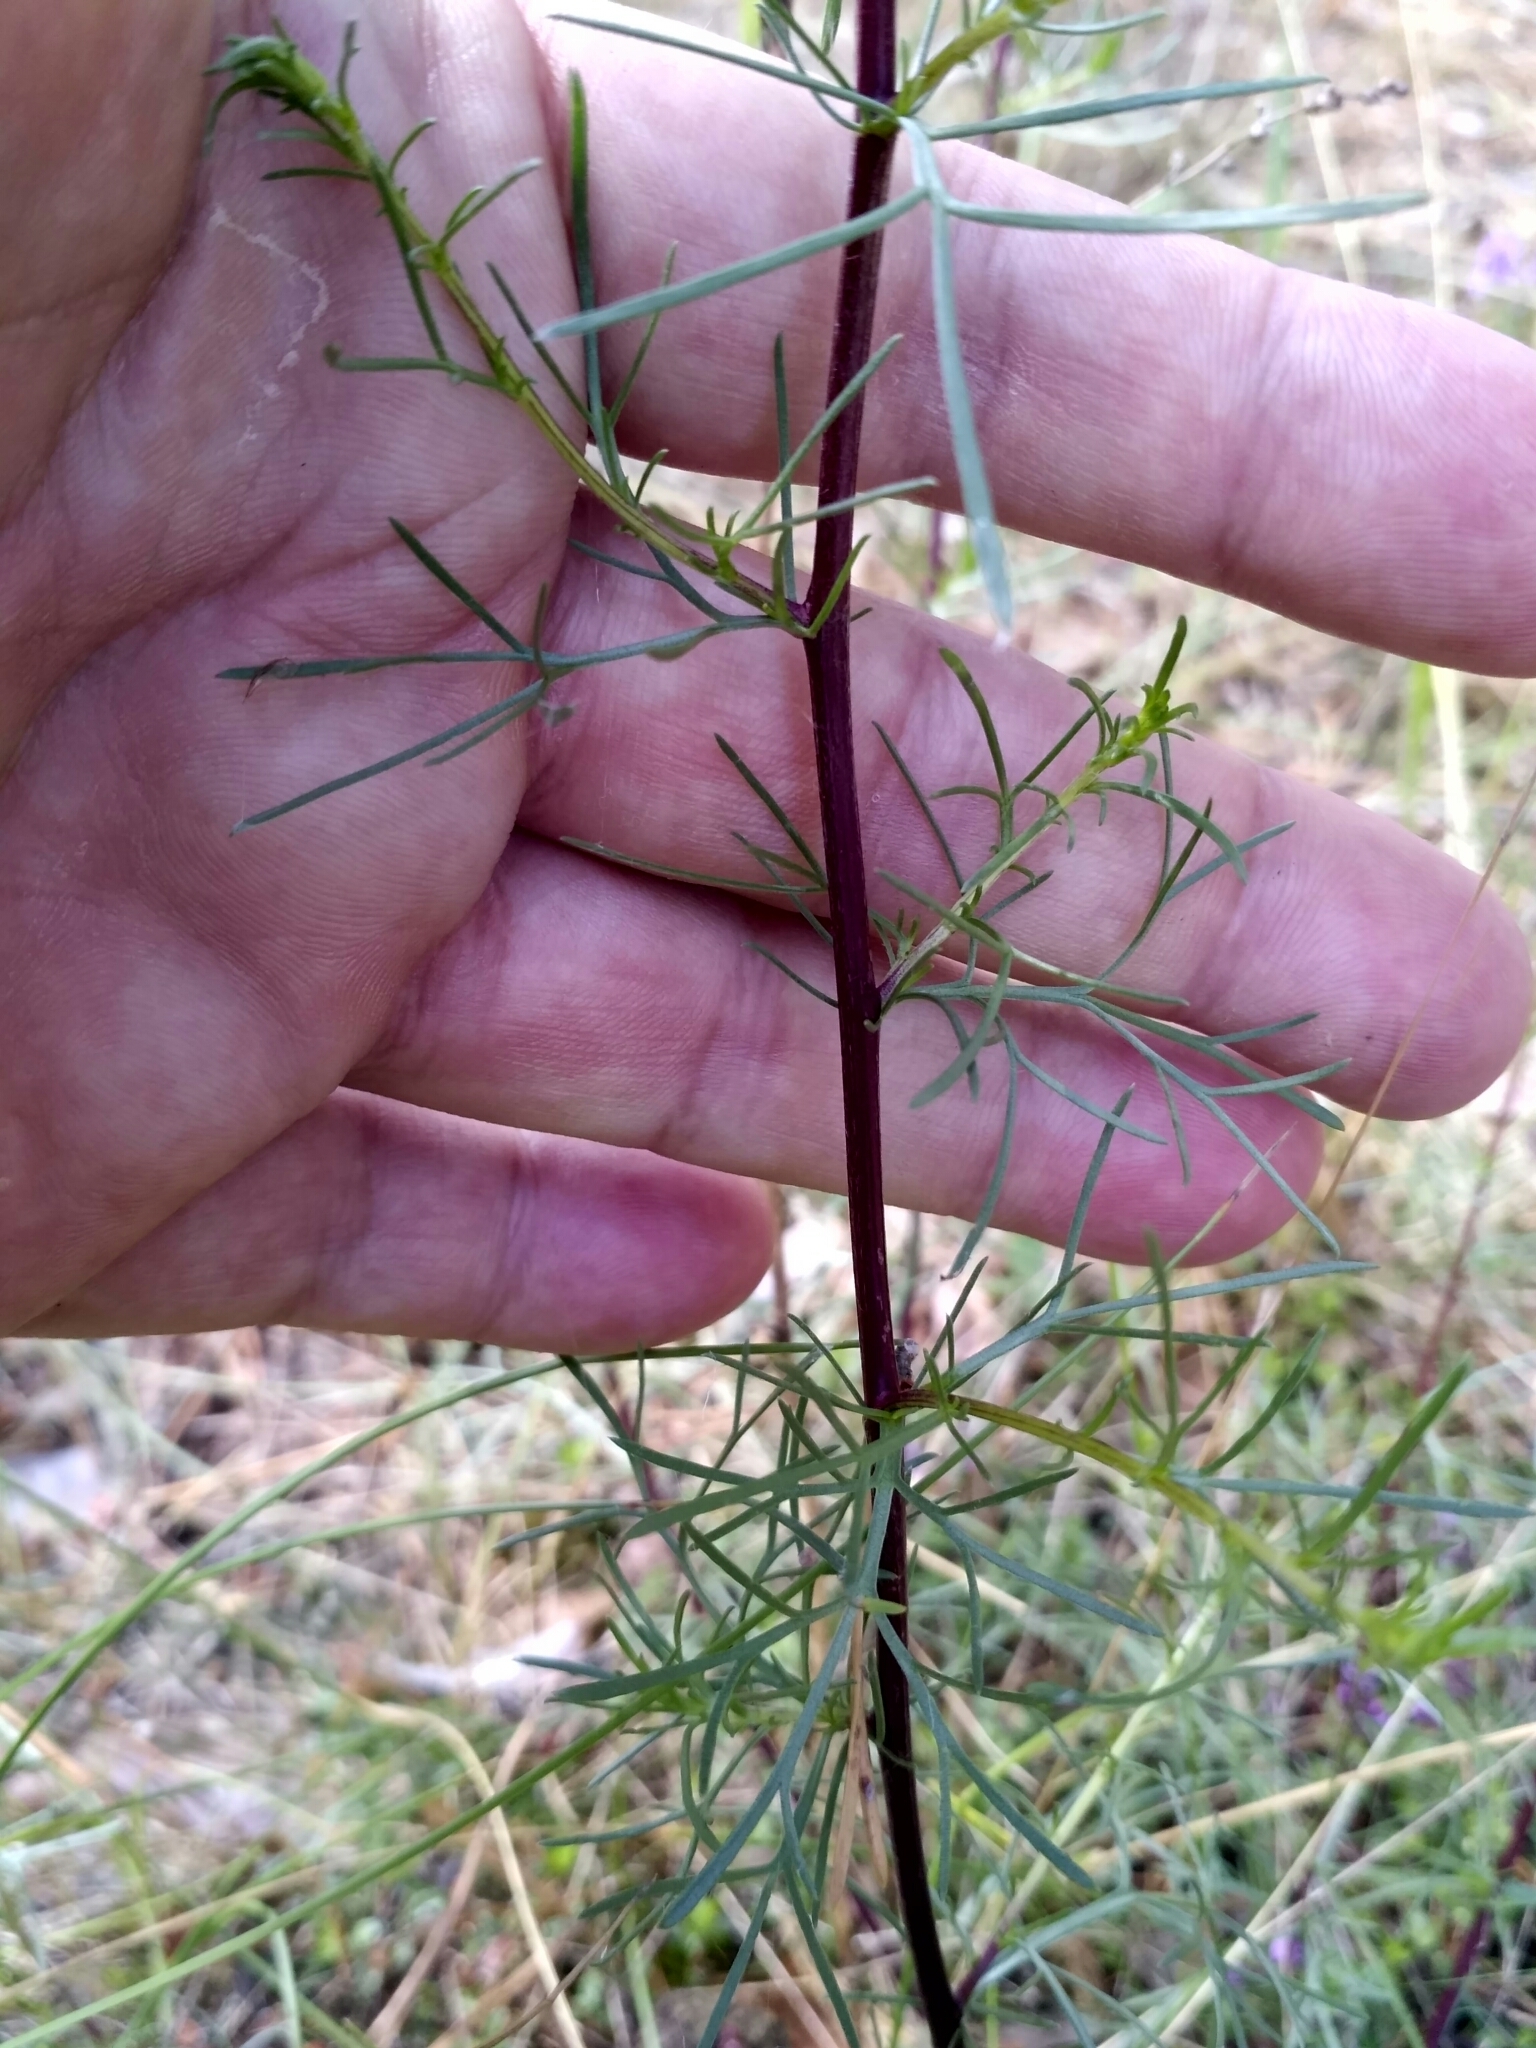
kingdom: Plantae
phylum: Tracheophyta
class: Magnoliopsida
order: Asterales
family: Asteraceae
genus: Artemisia
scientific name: Artemisia campestris
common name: Field wormwood
